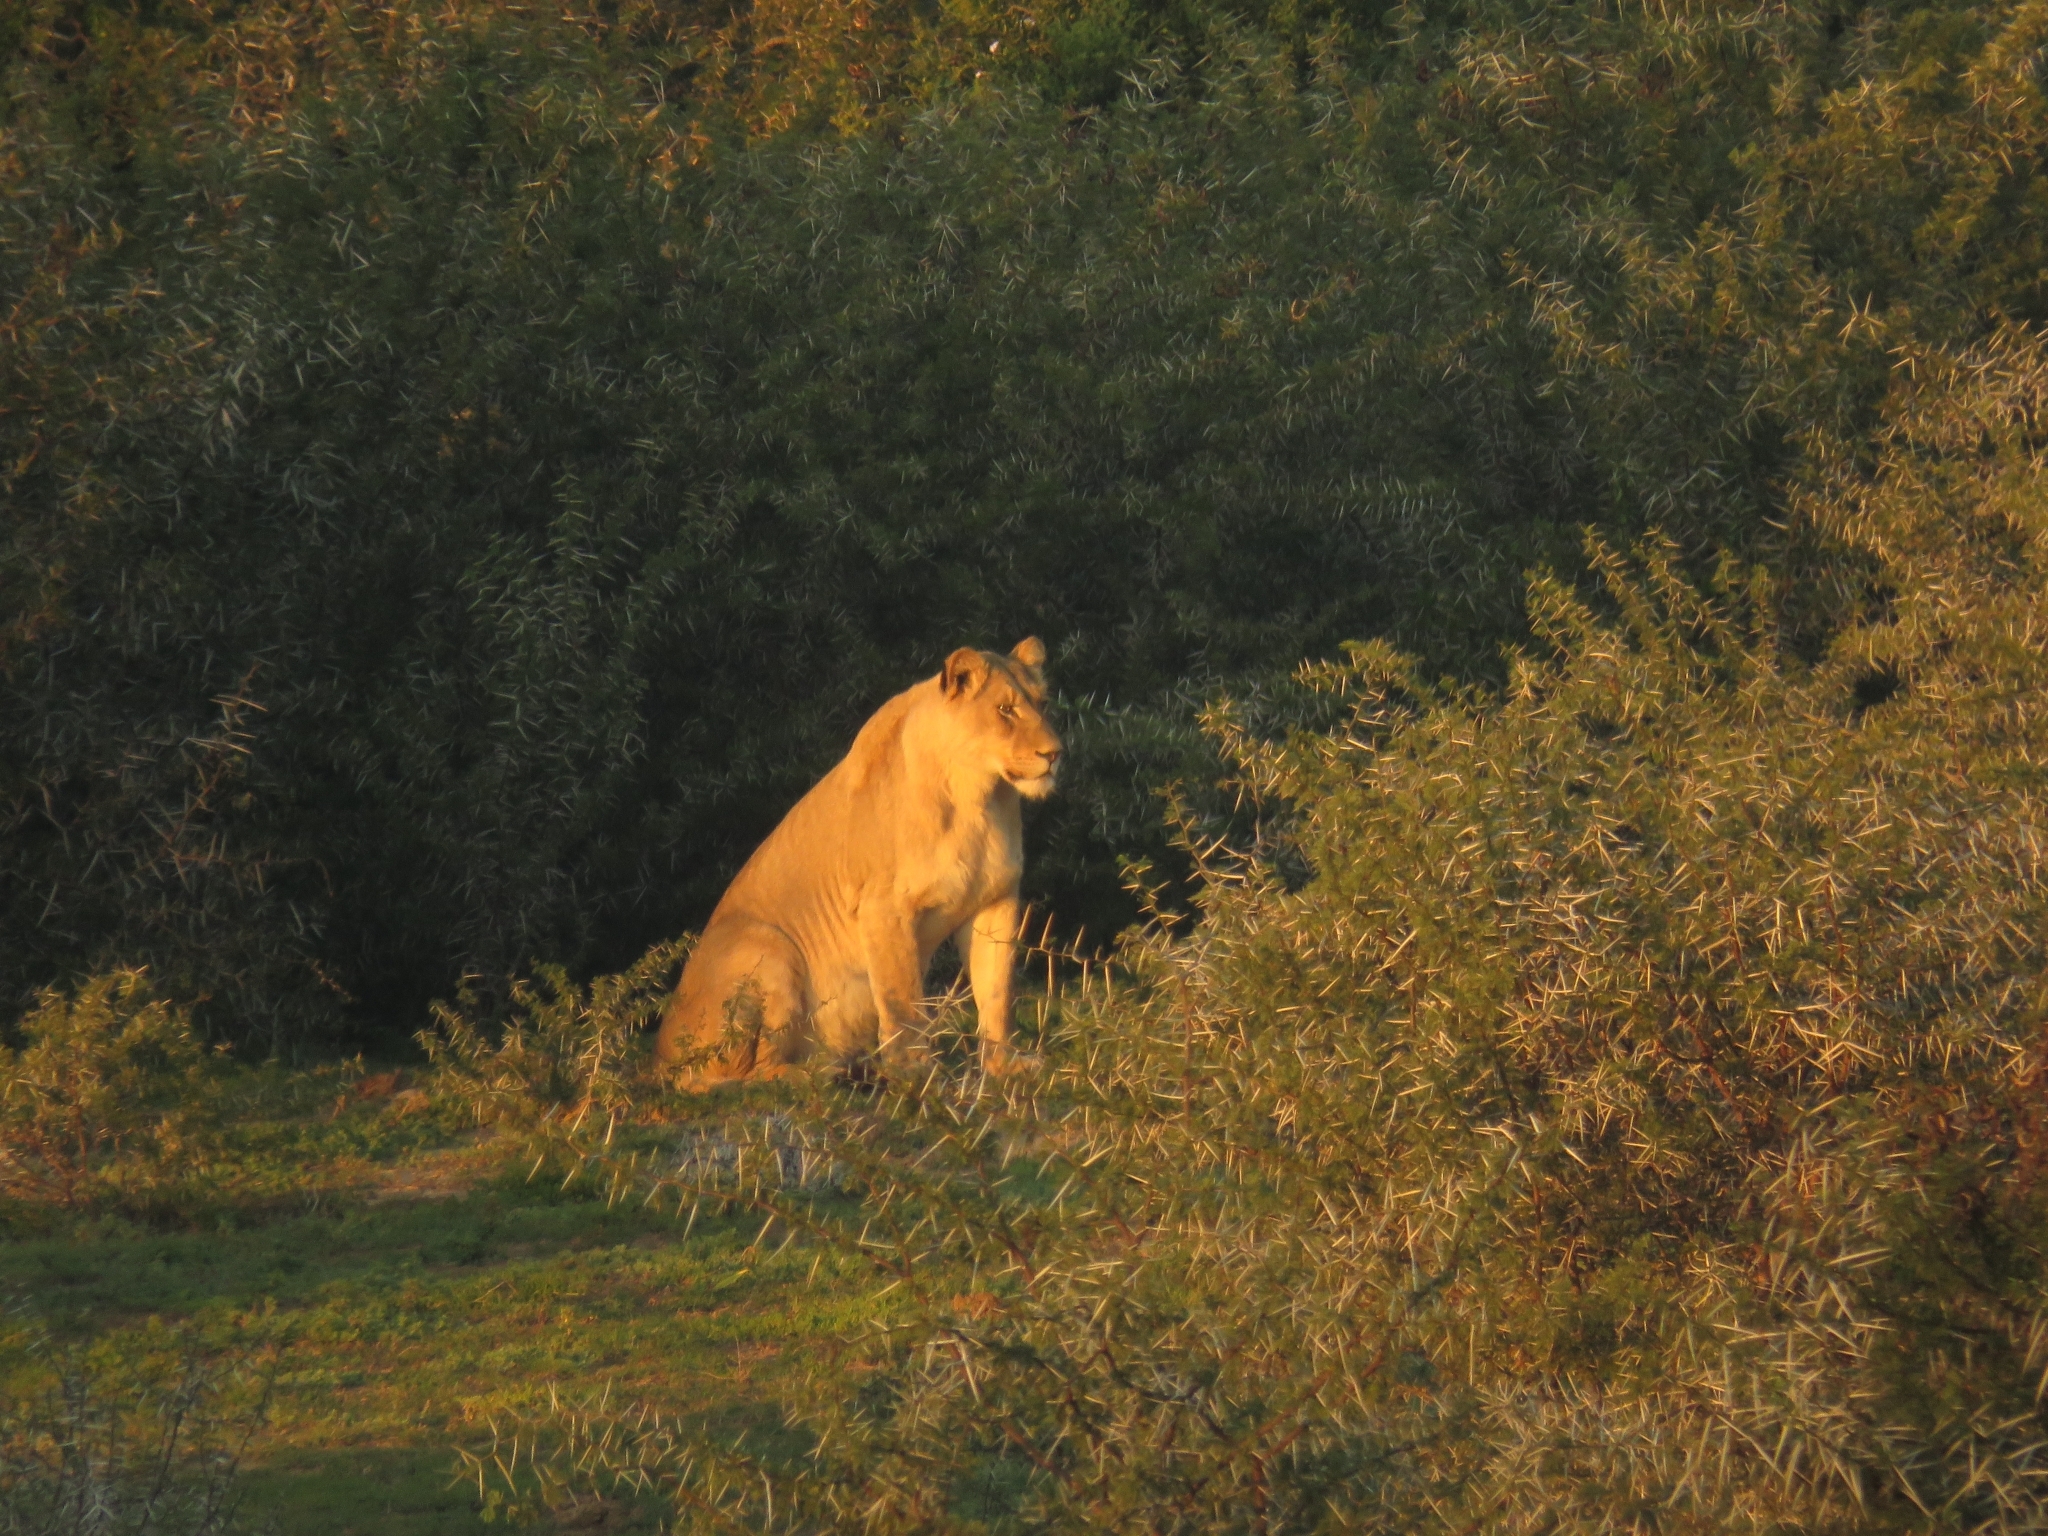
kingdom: Animalia
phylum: Chordata
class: Mammalia
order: Carnivora
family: Felidae
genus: Panthera
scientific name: Panthera leo
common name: Lion
